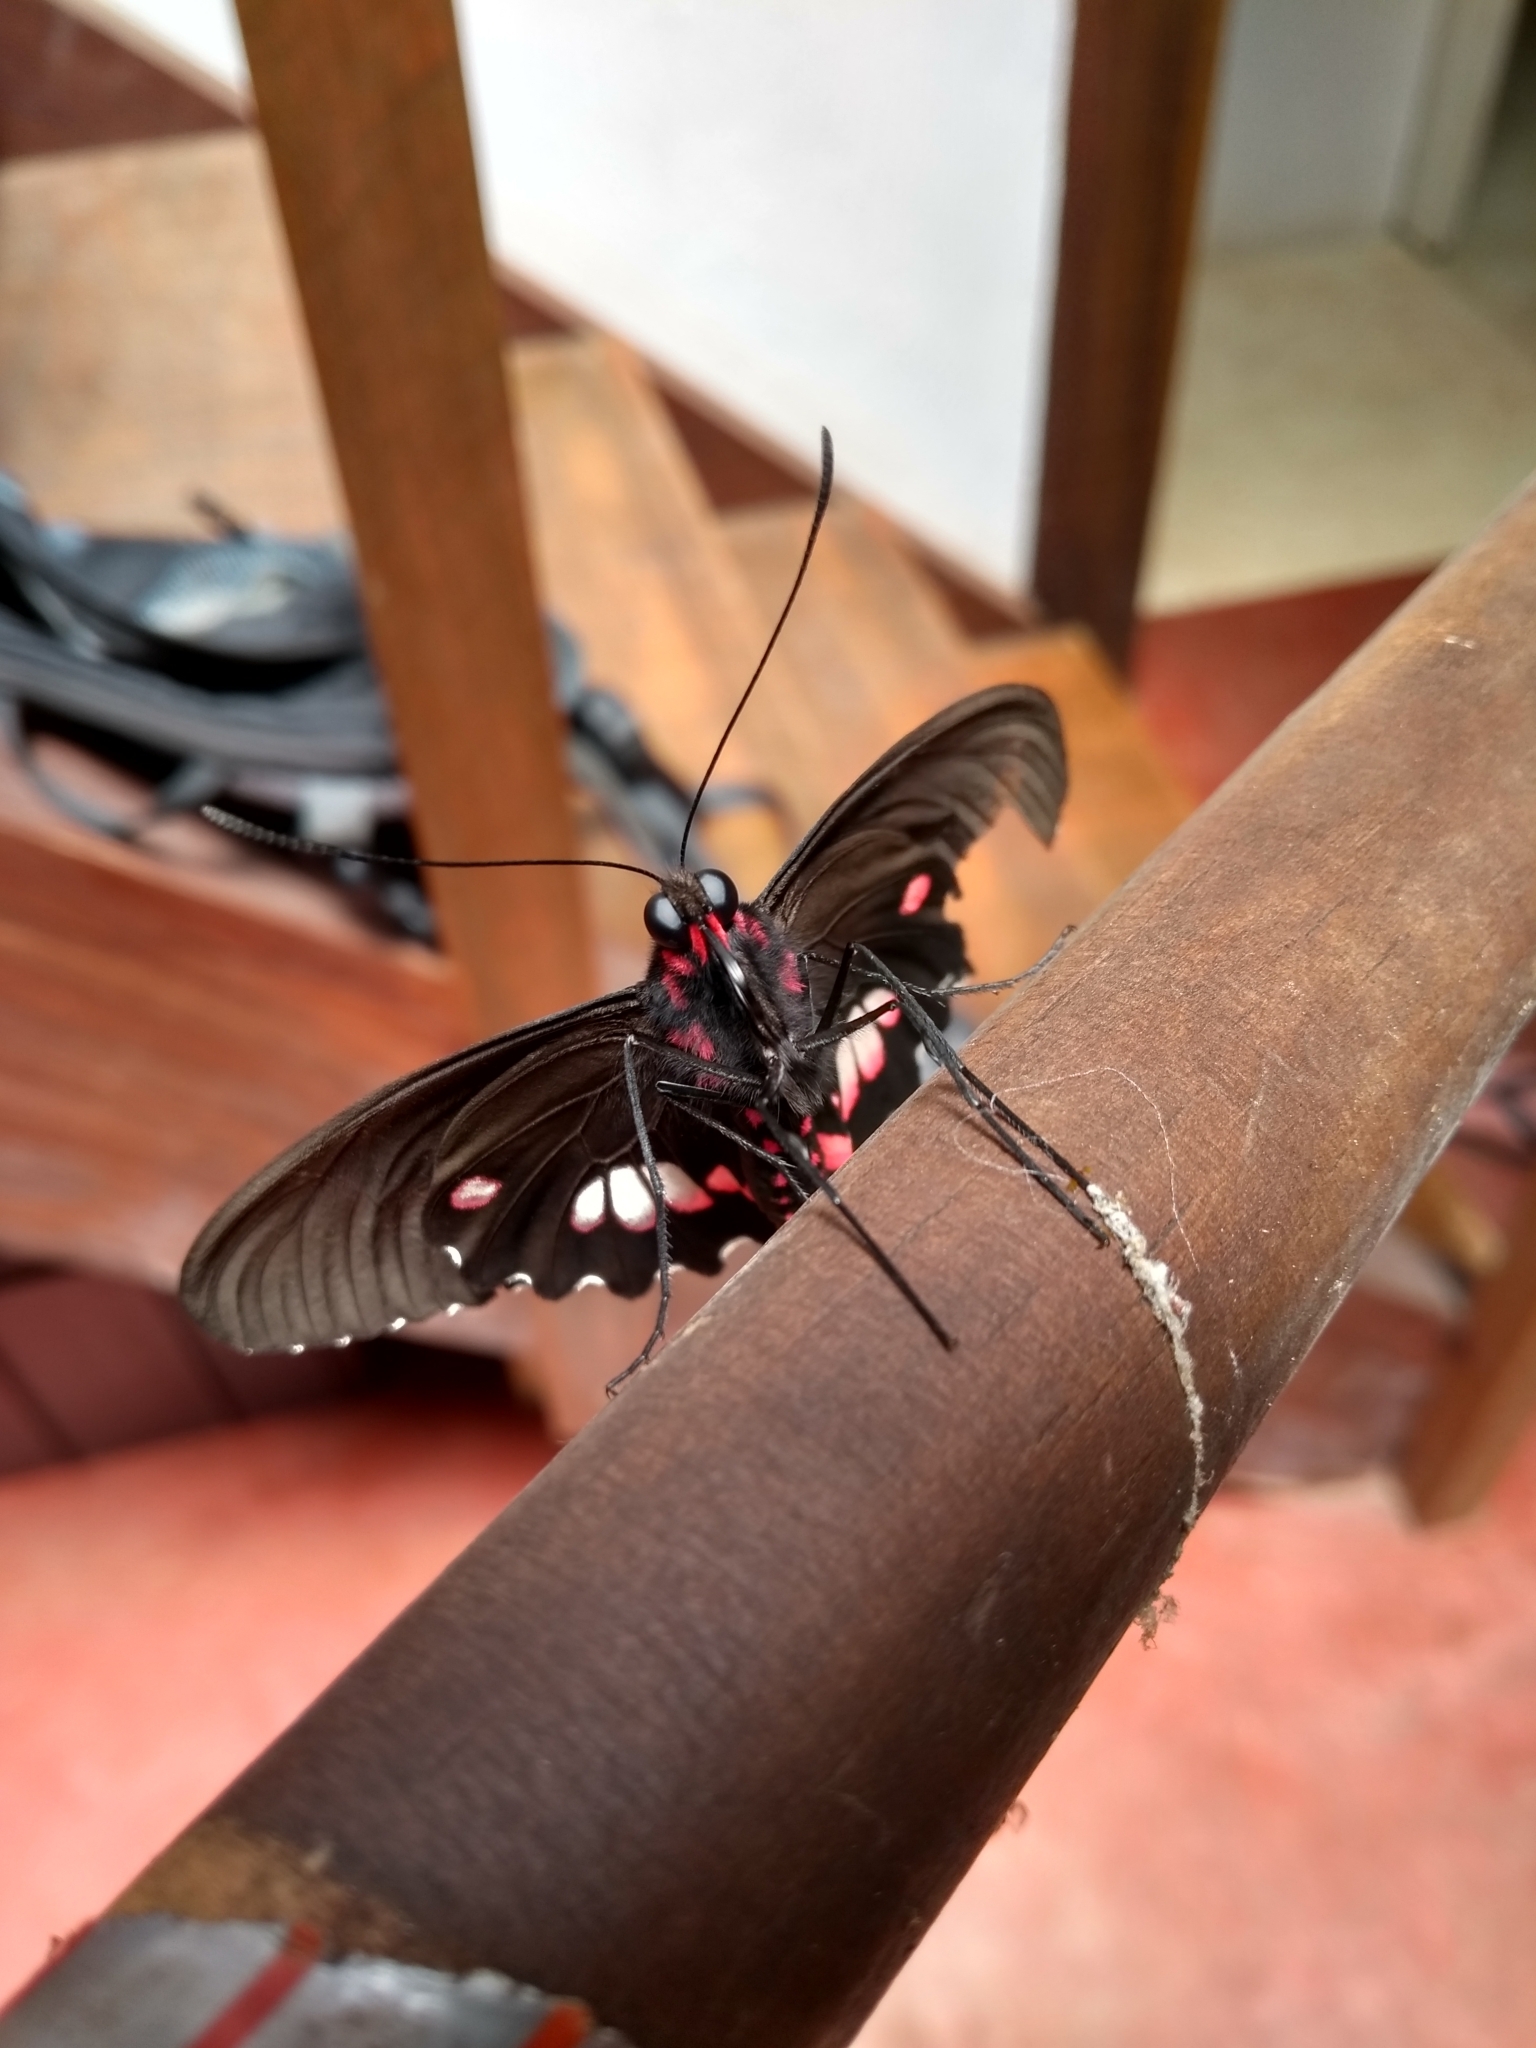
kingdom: Animalia
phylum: Arthropoda
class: Insecta
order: Lepidoptera
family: Papilionidae
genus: Parides
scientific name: Parides anchises
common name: Cattle heart
